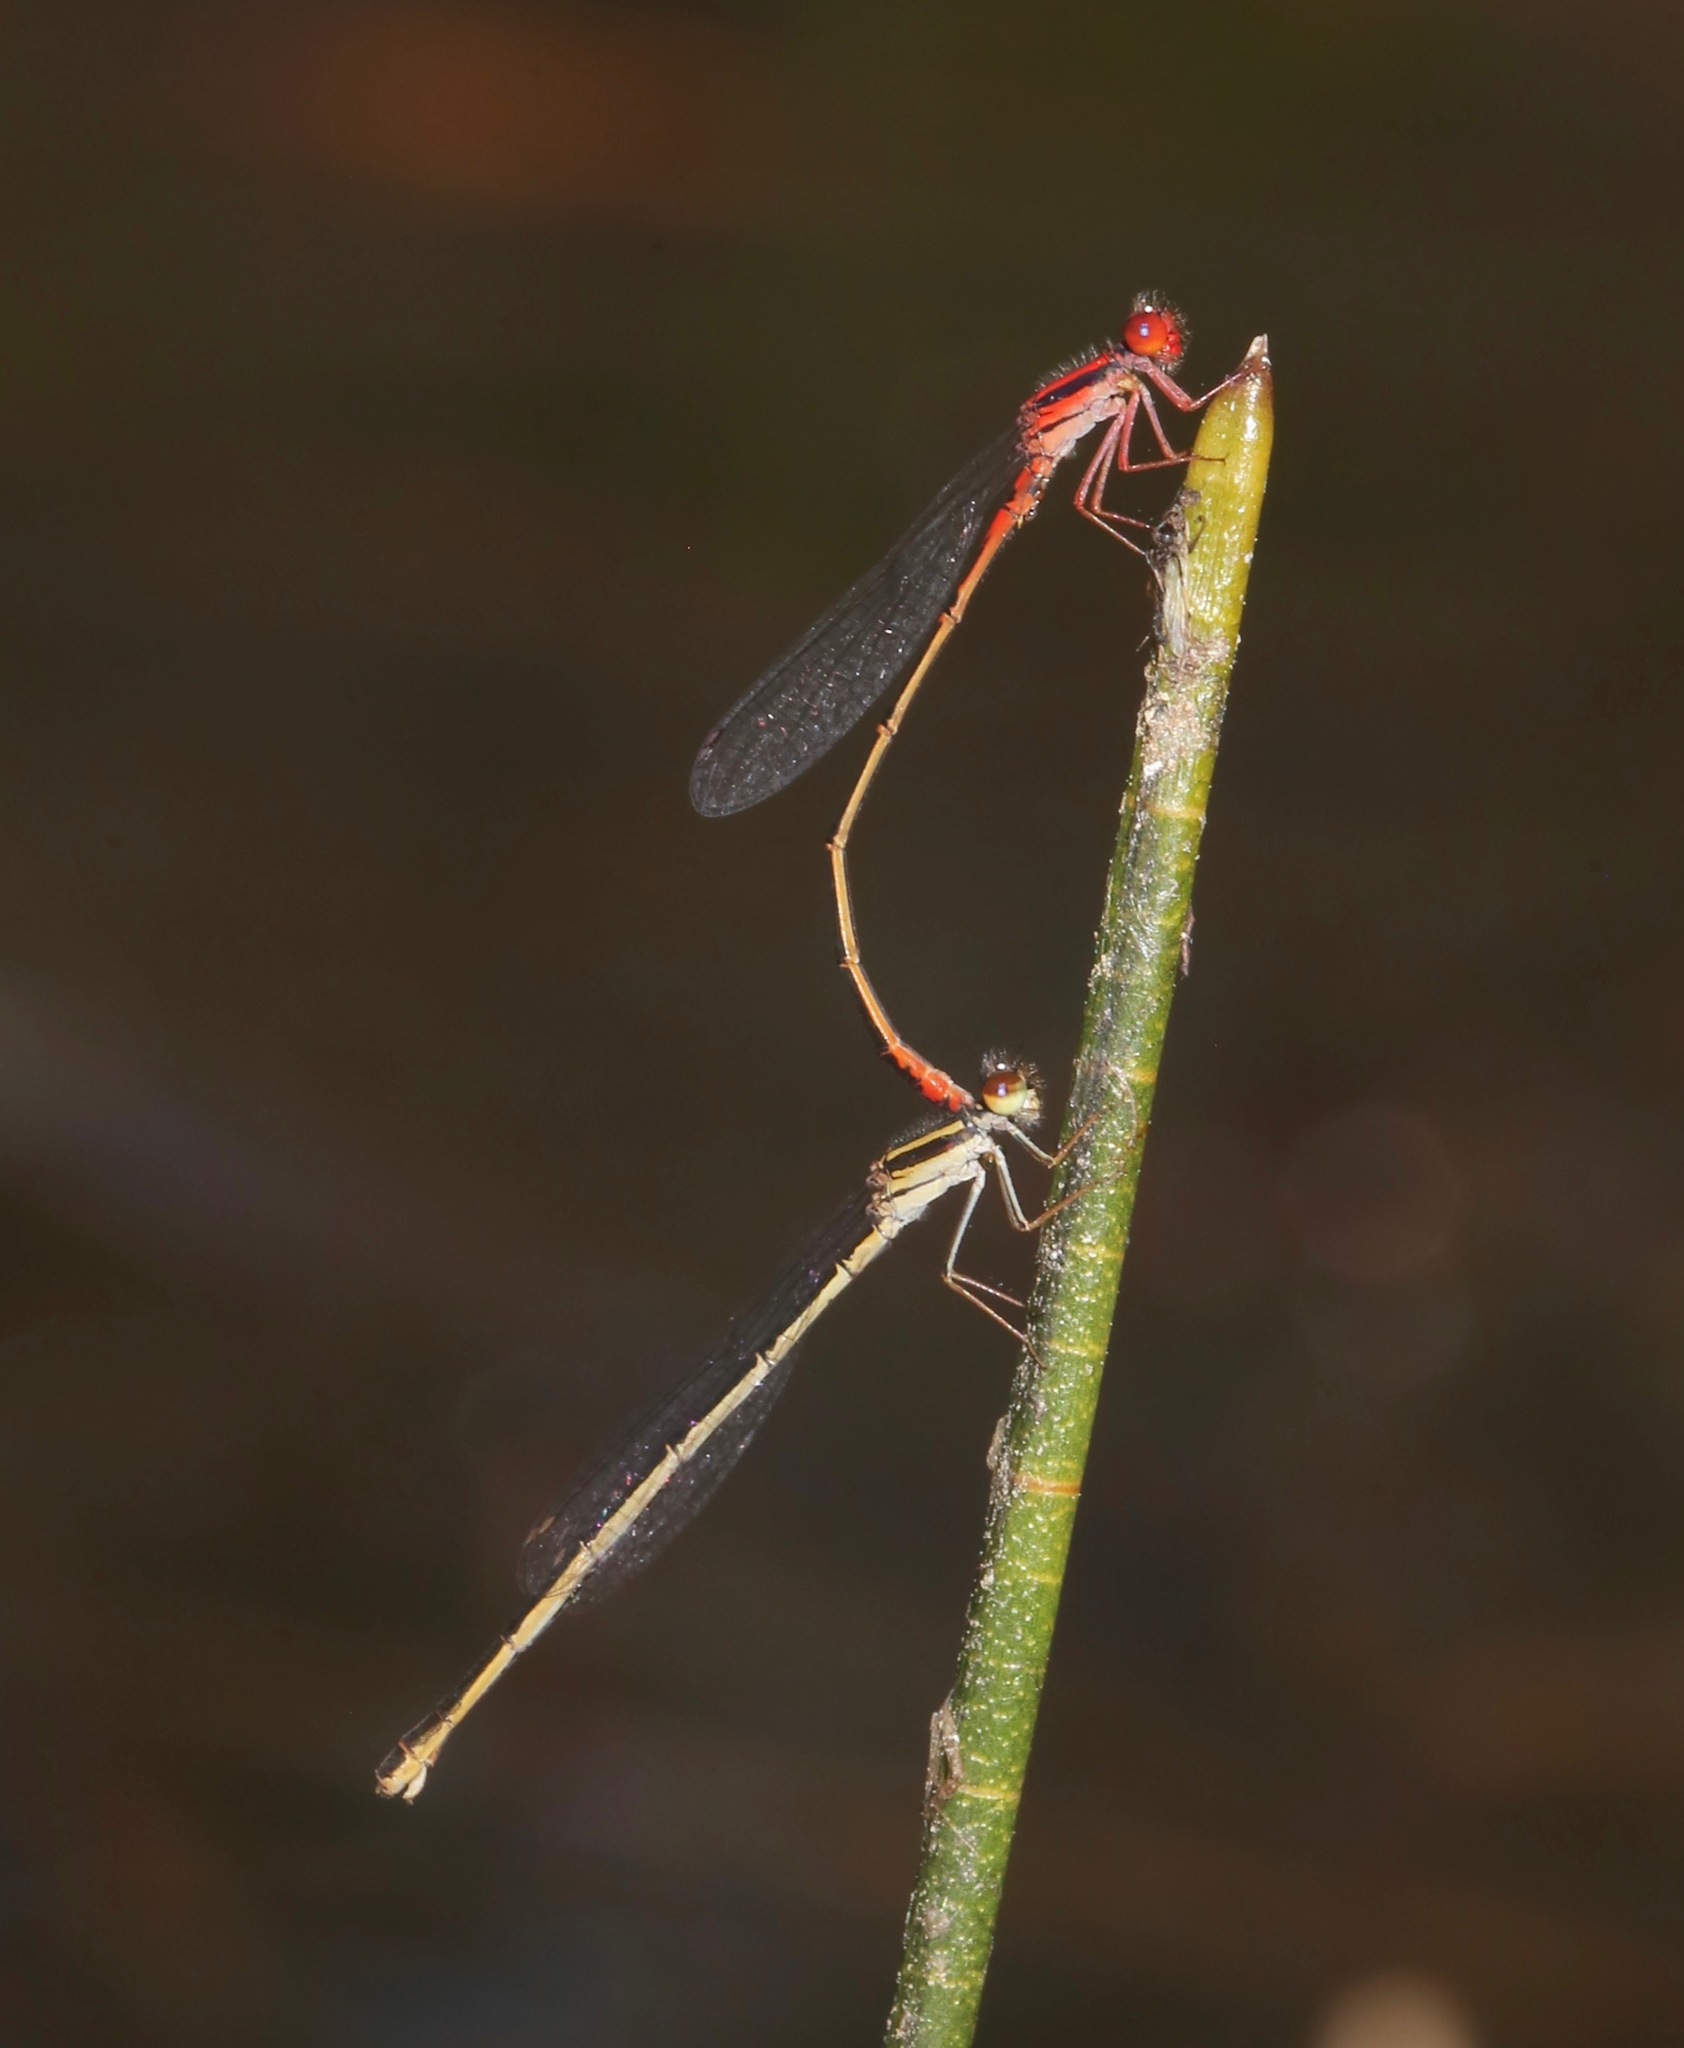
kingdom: Animalia
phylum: Arthropoda
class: Insecta
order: Odonata
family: Coenagrionidae
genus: Enallagma
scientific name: Enallagma concisum
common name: Cherry bluet
